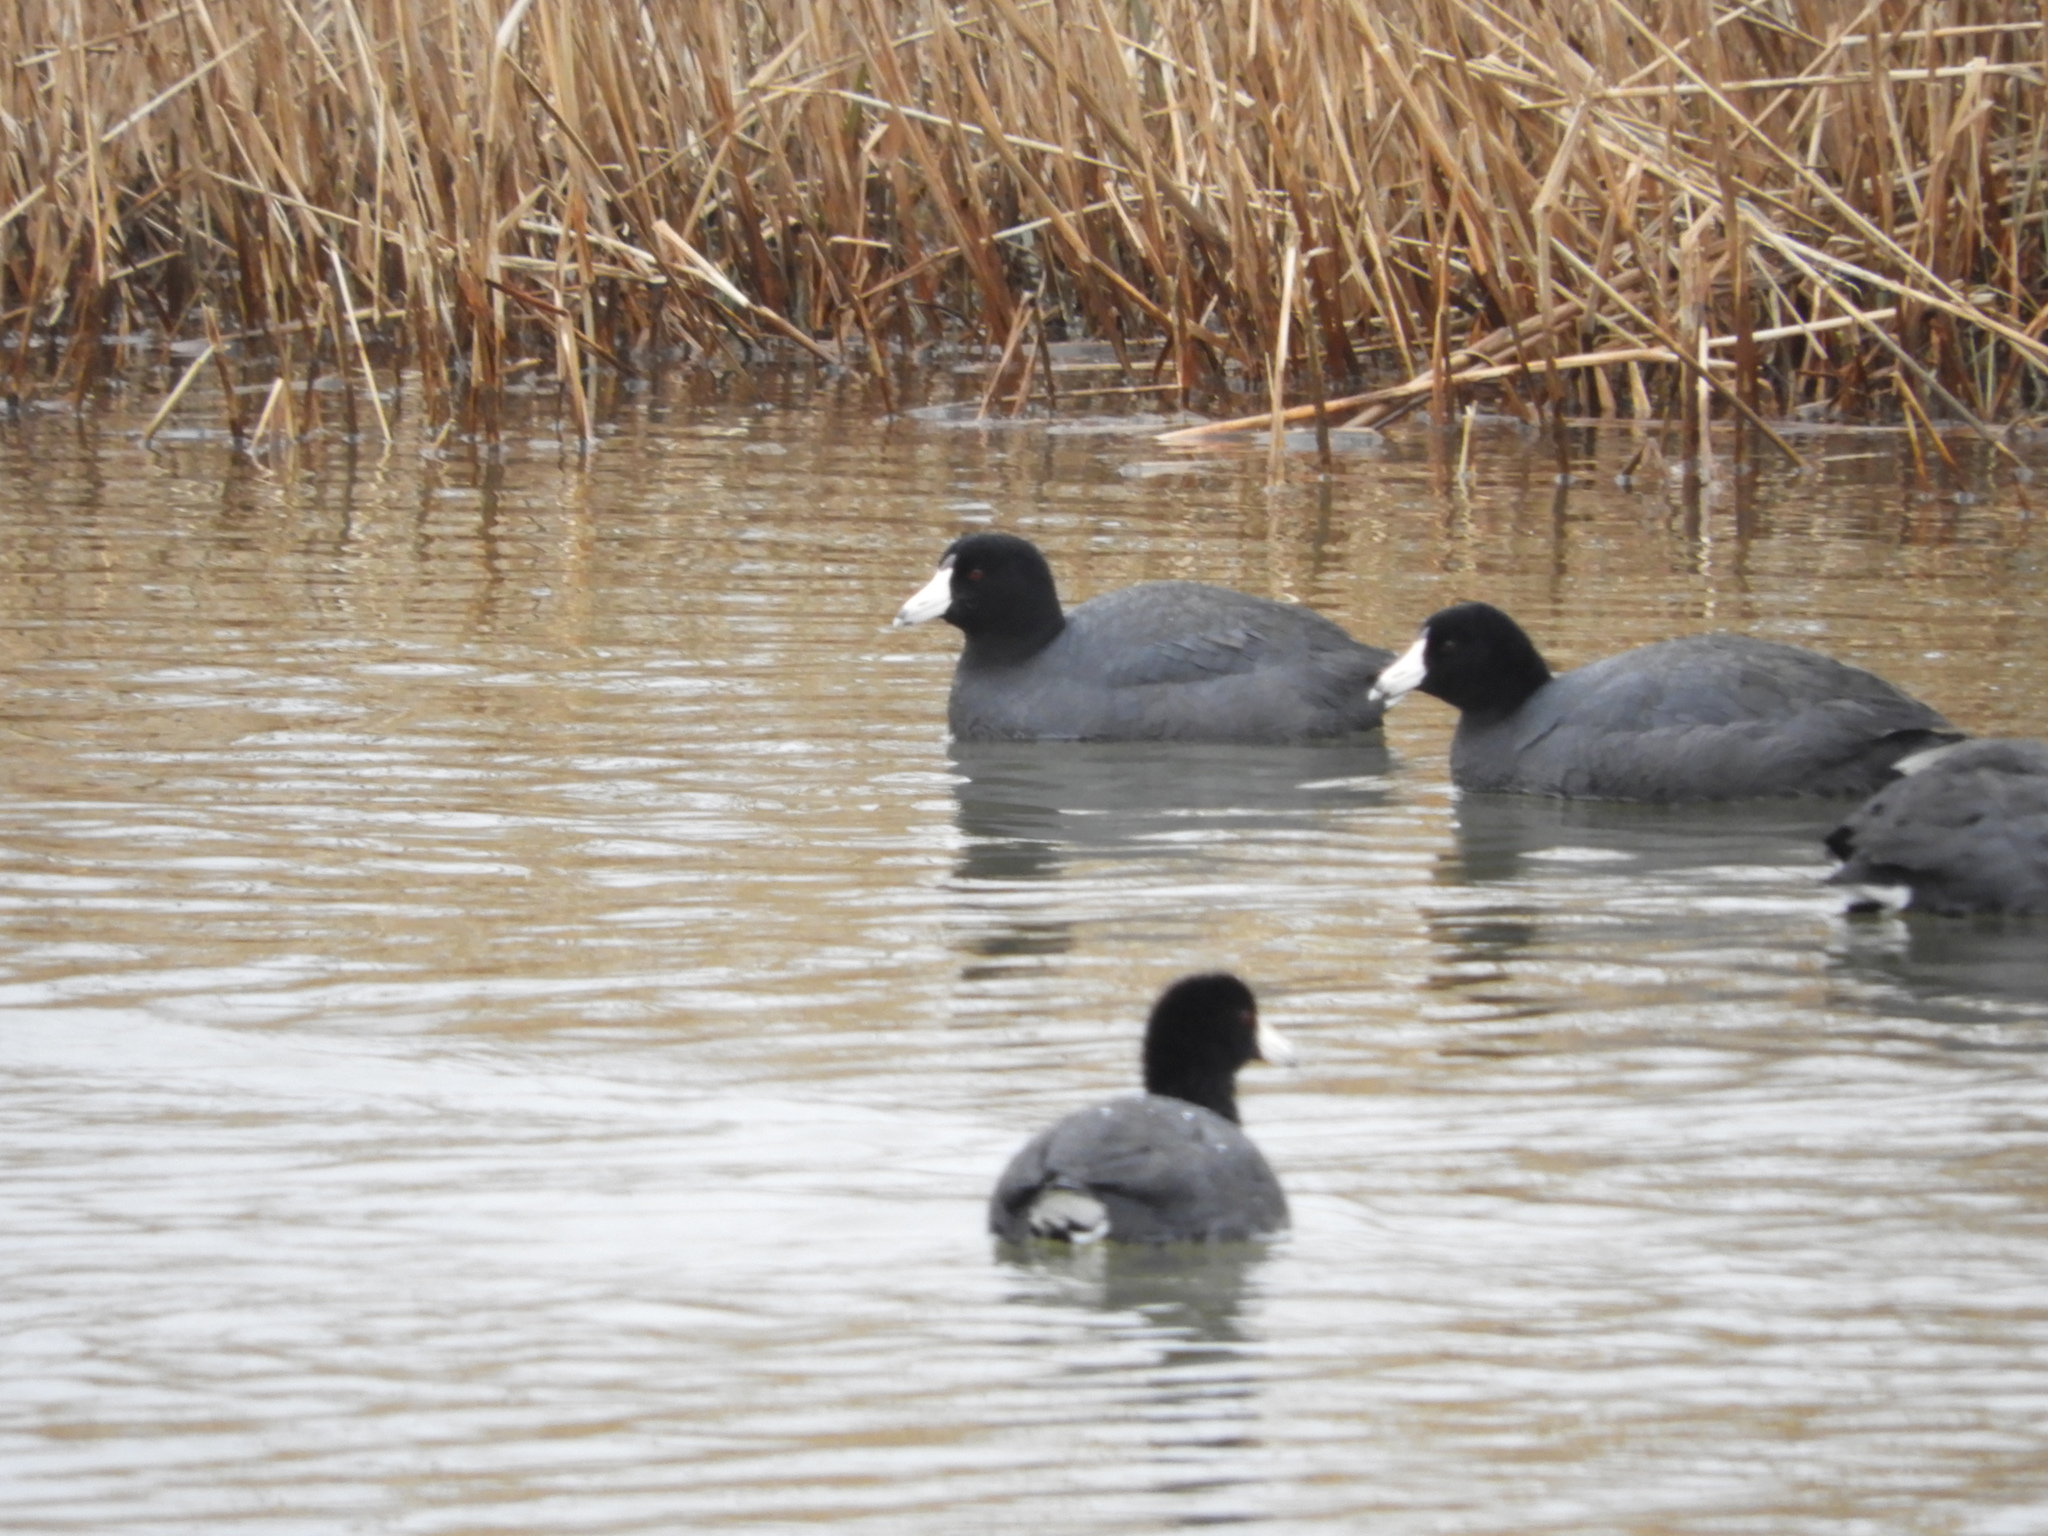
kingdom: Animalia
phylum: Chordata
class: Aves
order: Gruiformes
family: Rallidae
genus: Fulica
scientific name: Fulica americana
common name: American coot
